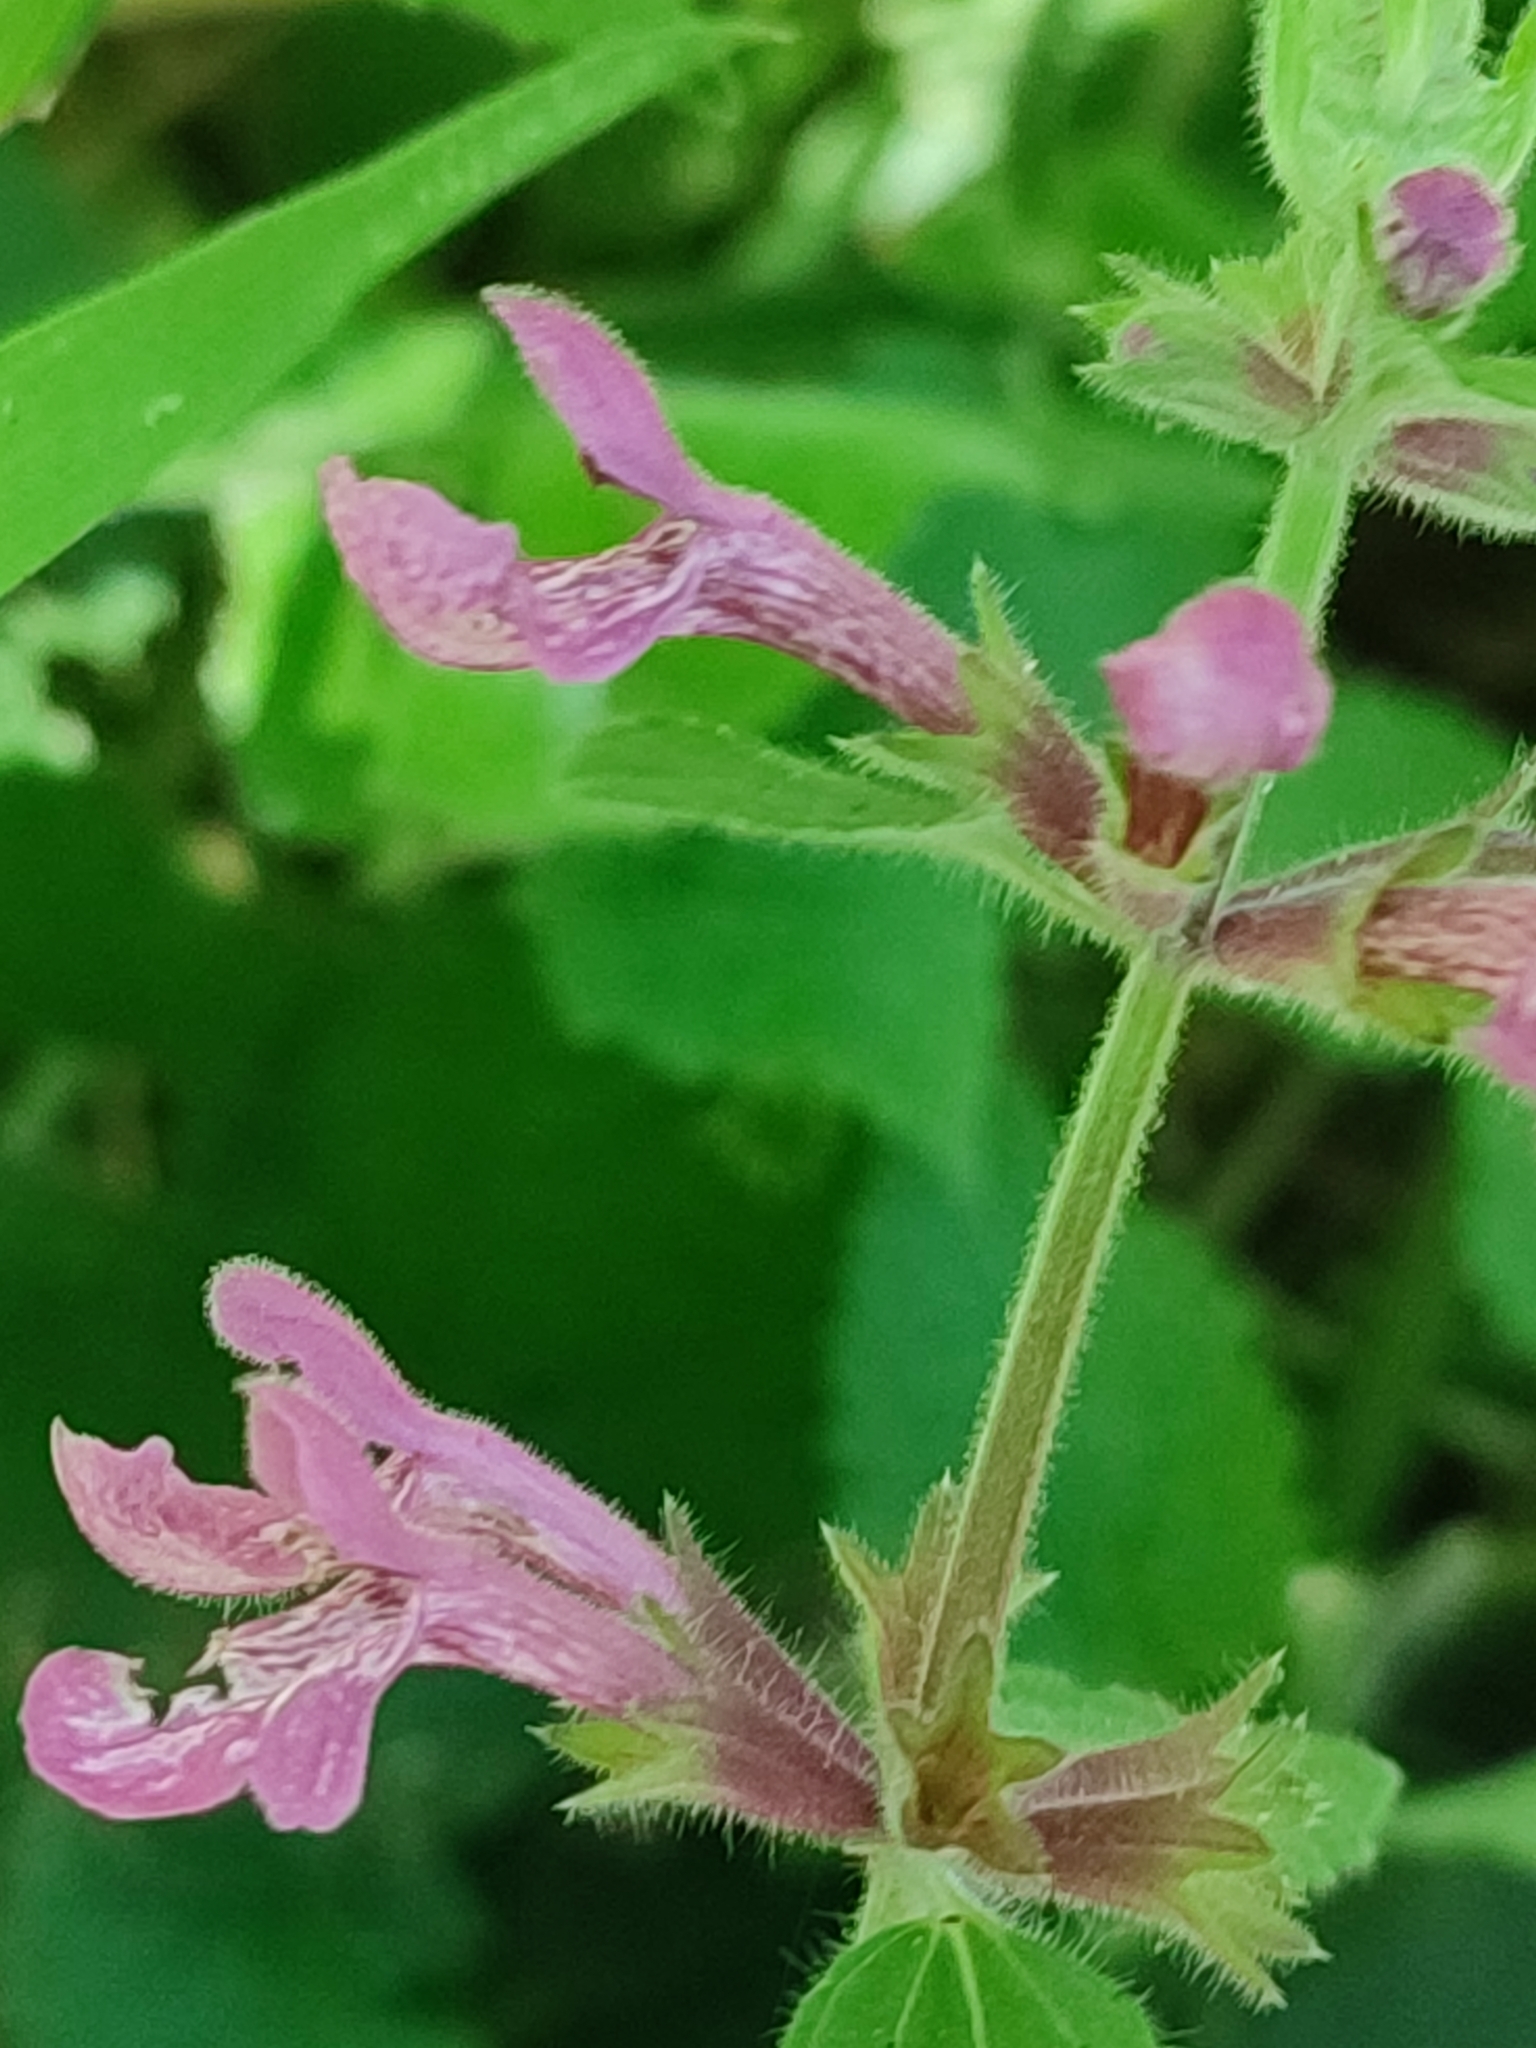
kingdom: Plantae
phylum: Tracheophyta
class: Magnoliopsida
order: Lamiales
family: Lamiaceae
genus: Stachys
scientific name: Stachys chamissonis
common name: Coastal hedge-nettle
